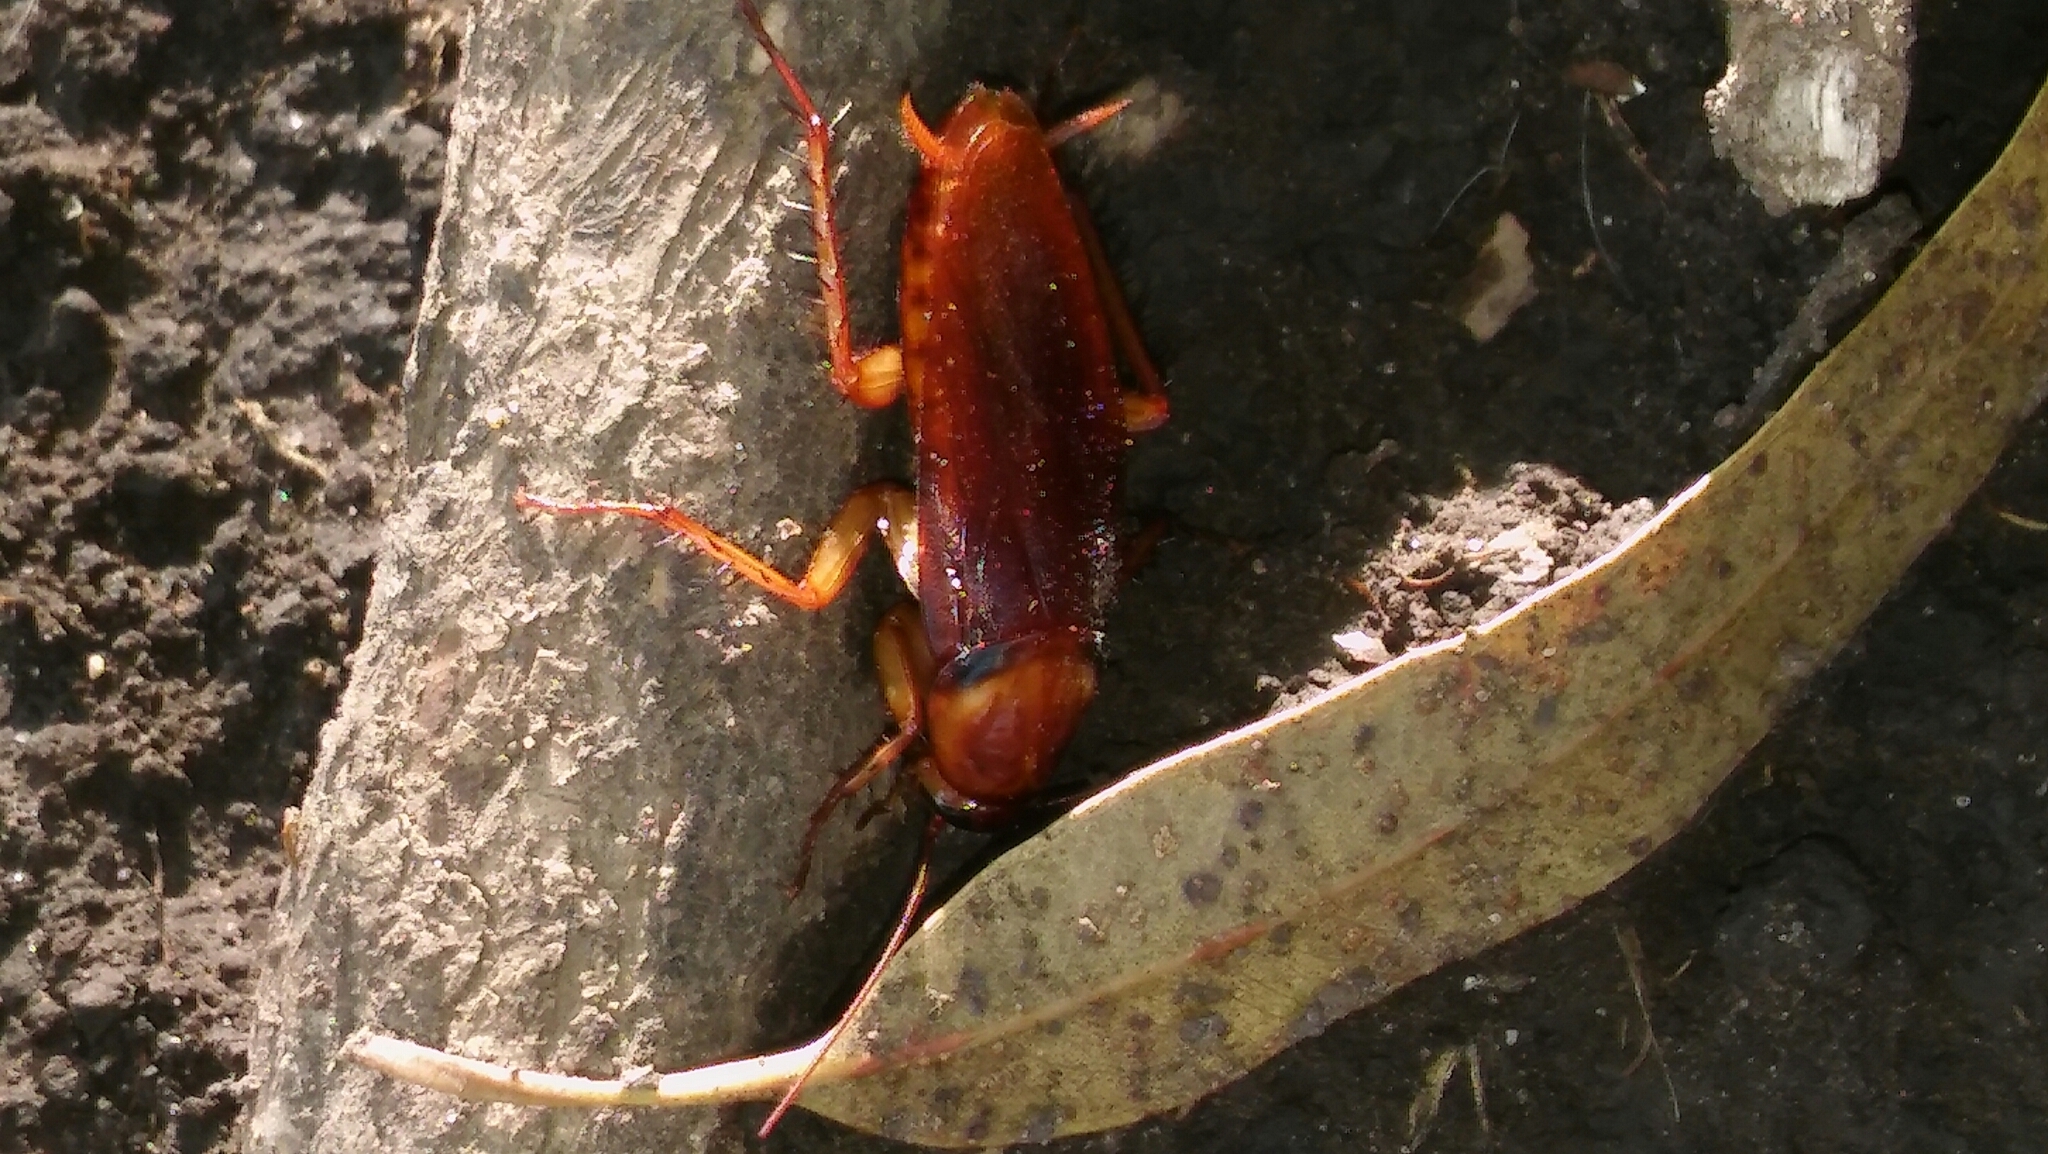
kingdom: Animalia
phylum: Arthropoda
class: Insecta
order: Blattodea
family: Blattidae
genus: Periplaneta
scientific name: Periplaneta americana
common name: American cockroach
